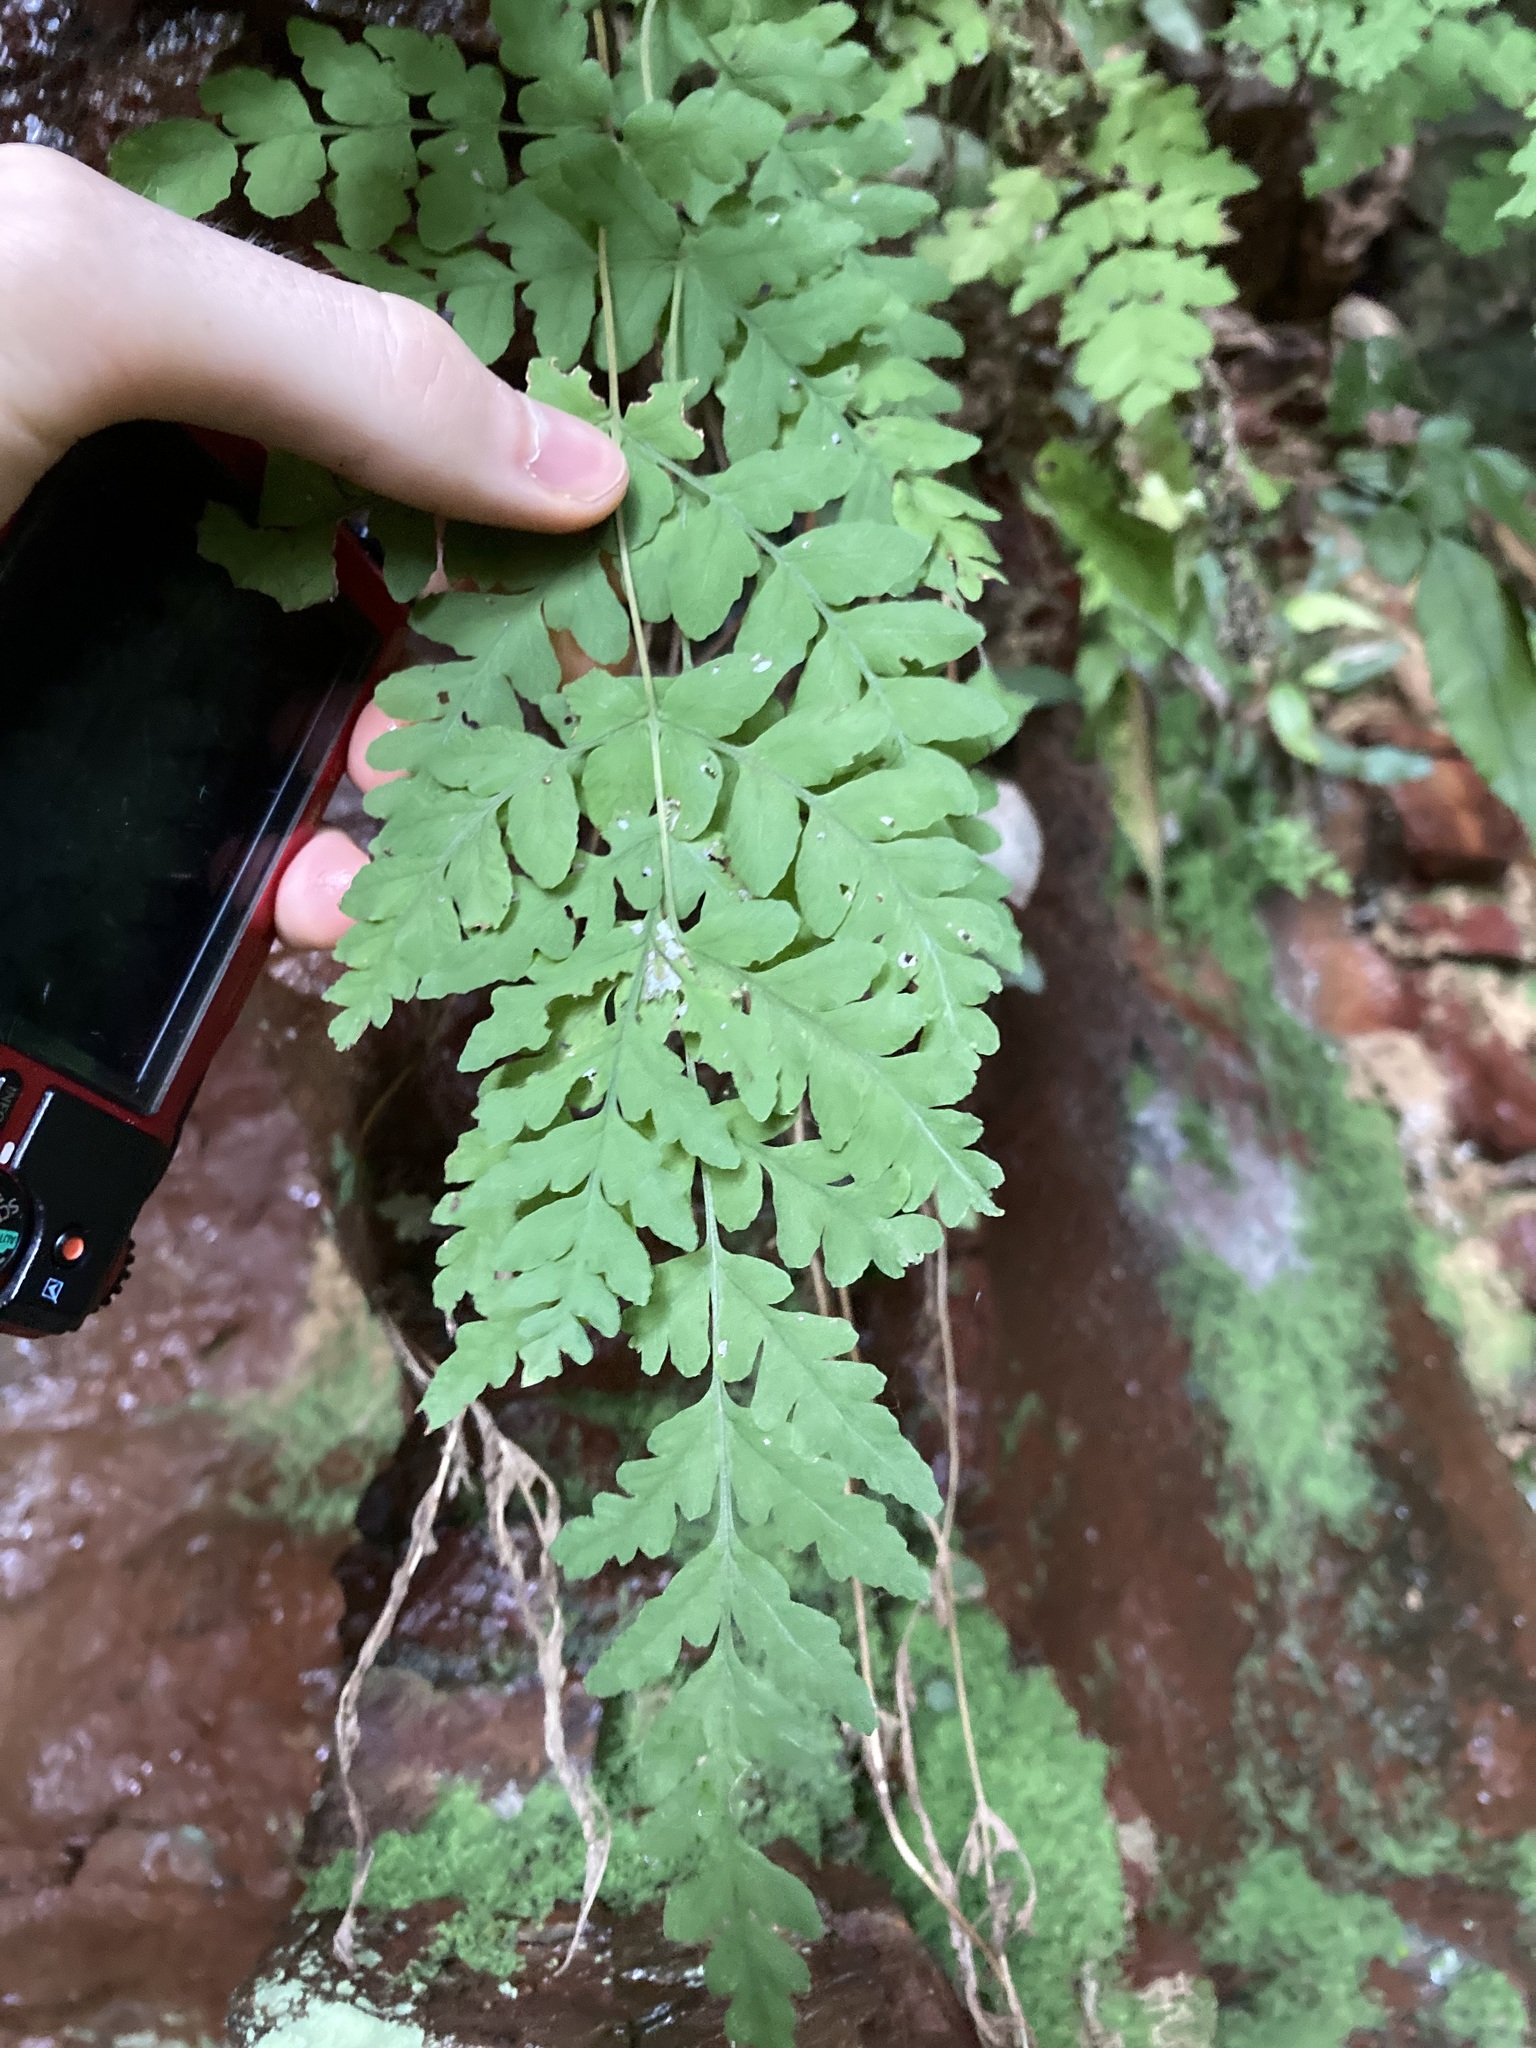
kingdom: Plantae
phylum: Tracheophyta
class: Polypodiopsida
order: Polypodiales
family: Dennstaedtiaceae
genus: Histiopteris
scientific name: Histiopteris incisa
